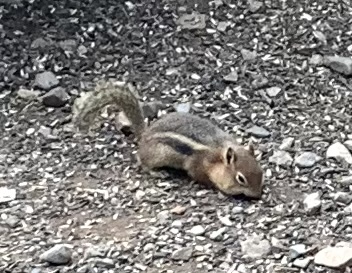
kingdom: Animalia
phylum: Chordata
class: Mammalia
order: Rodentia
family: Sciuridae
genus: Callospermophilus
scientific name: Callospermophilus lateralis
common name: Golden-mantled ground squirrel
